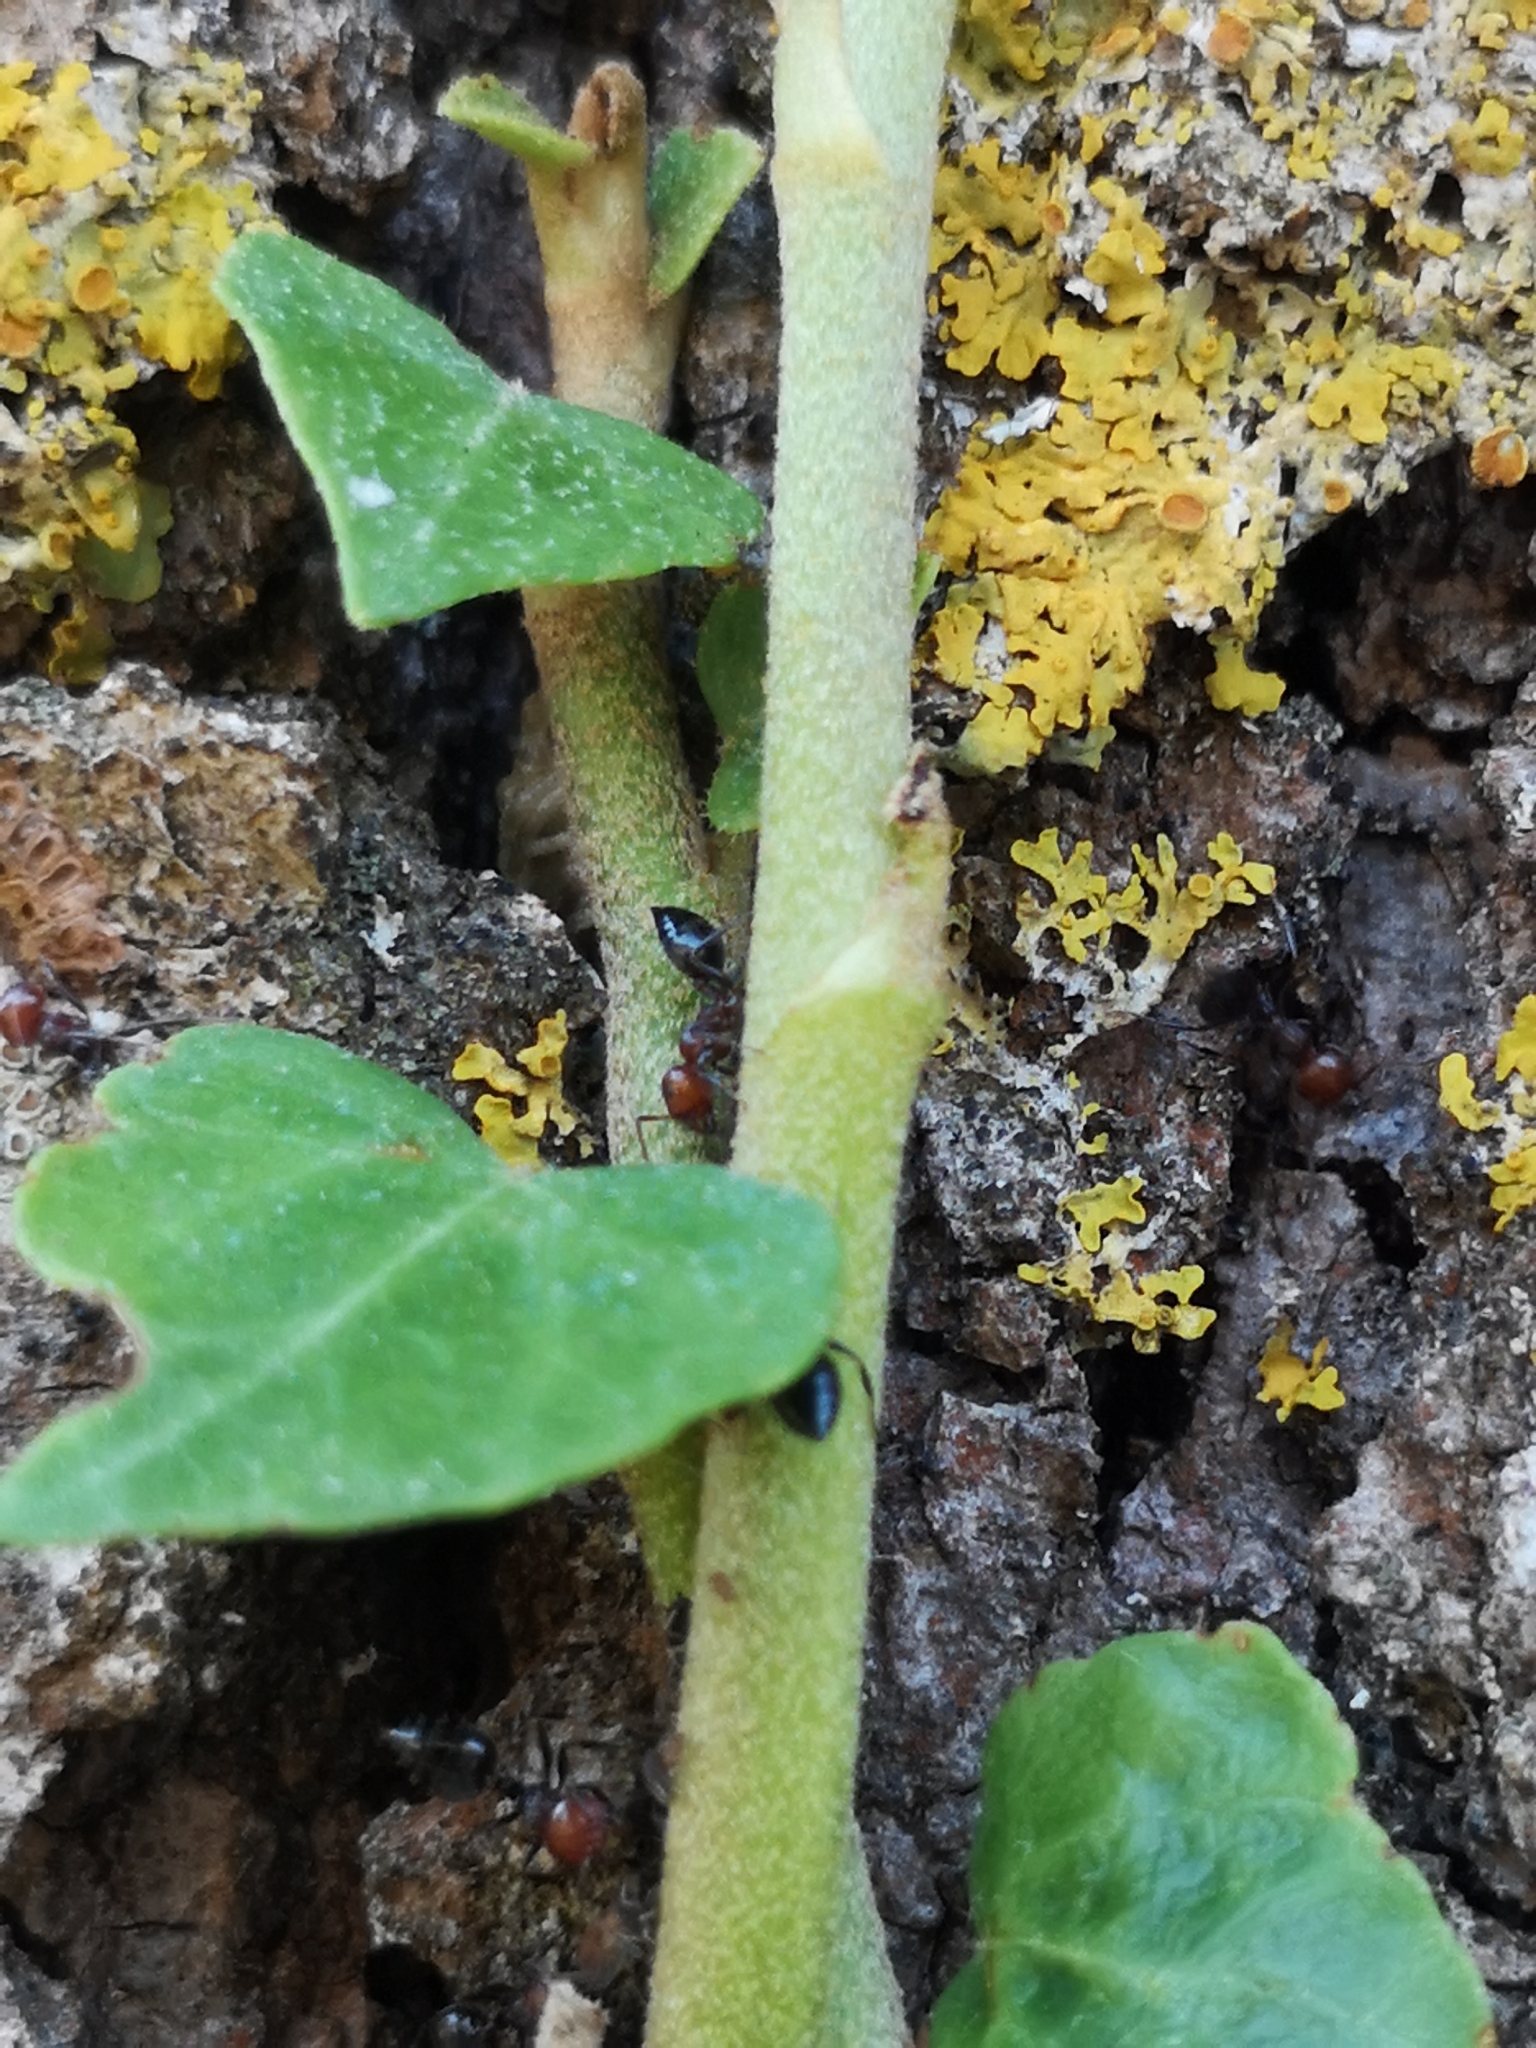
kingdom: Animalia
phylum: Arthropoda
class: Insecta
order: Hymenoptera
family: Formicidae
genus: Crematogaster
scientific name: Crematogaster scutellaris
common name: Fourmi du liège
